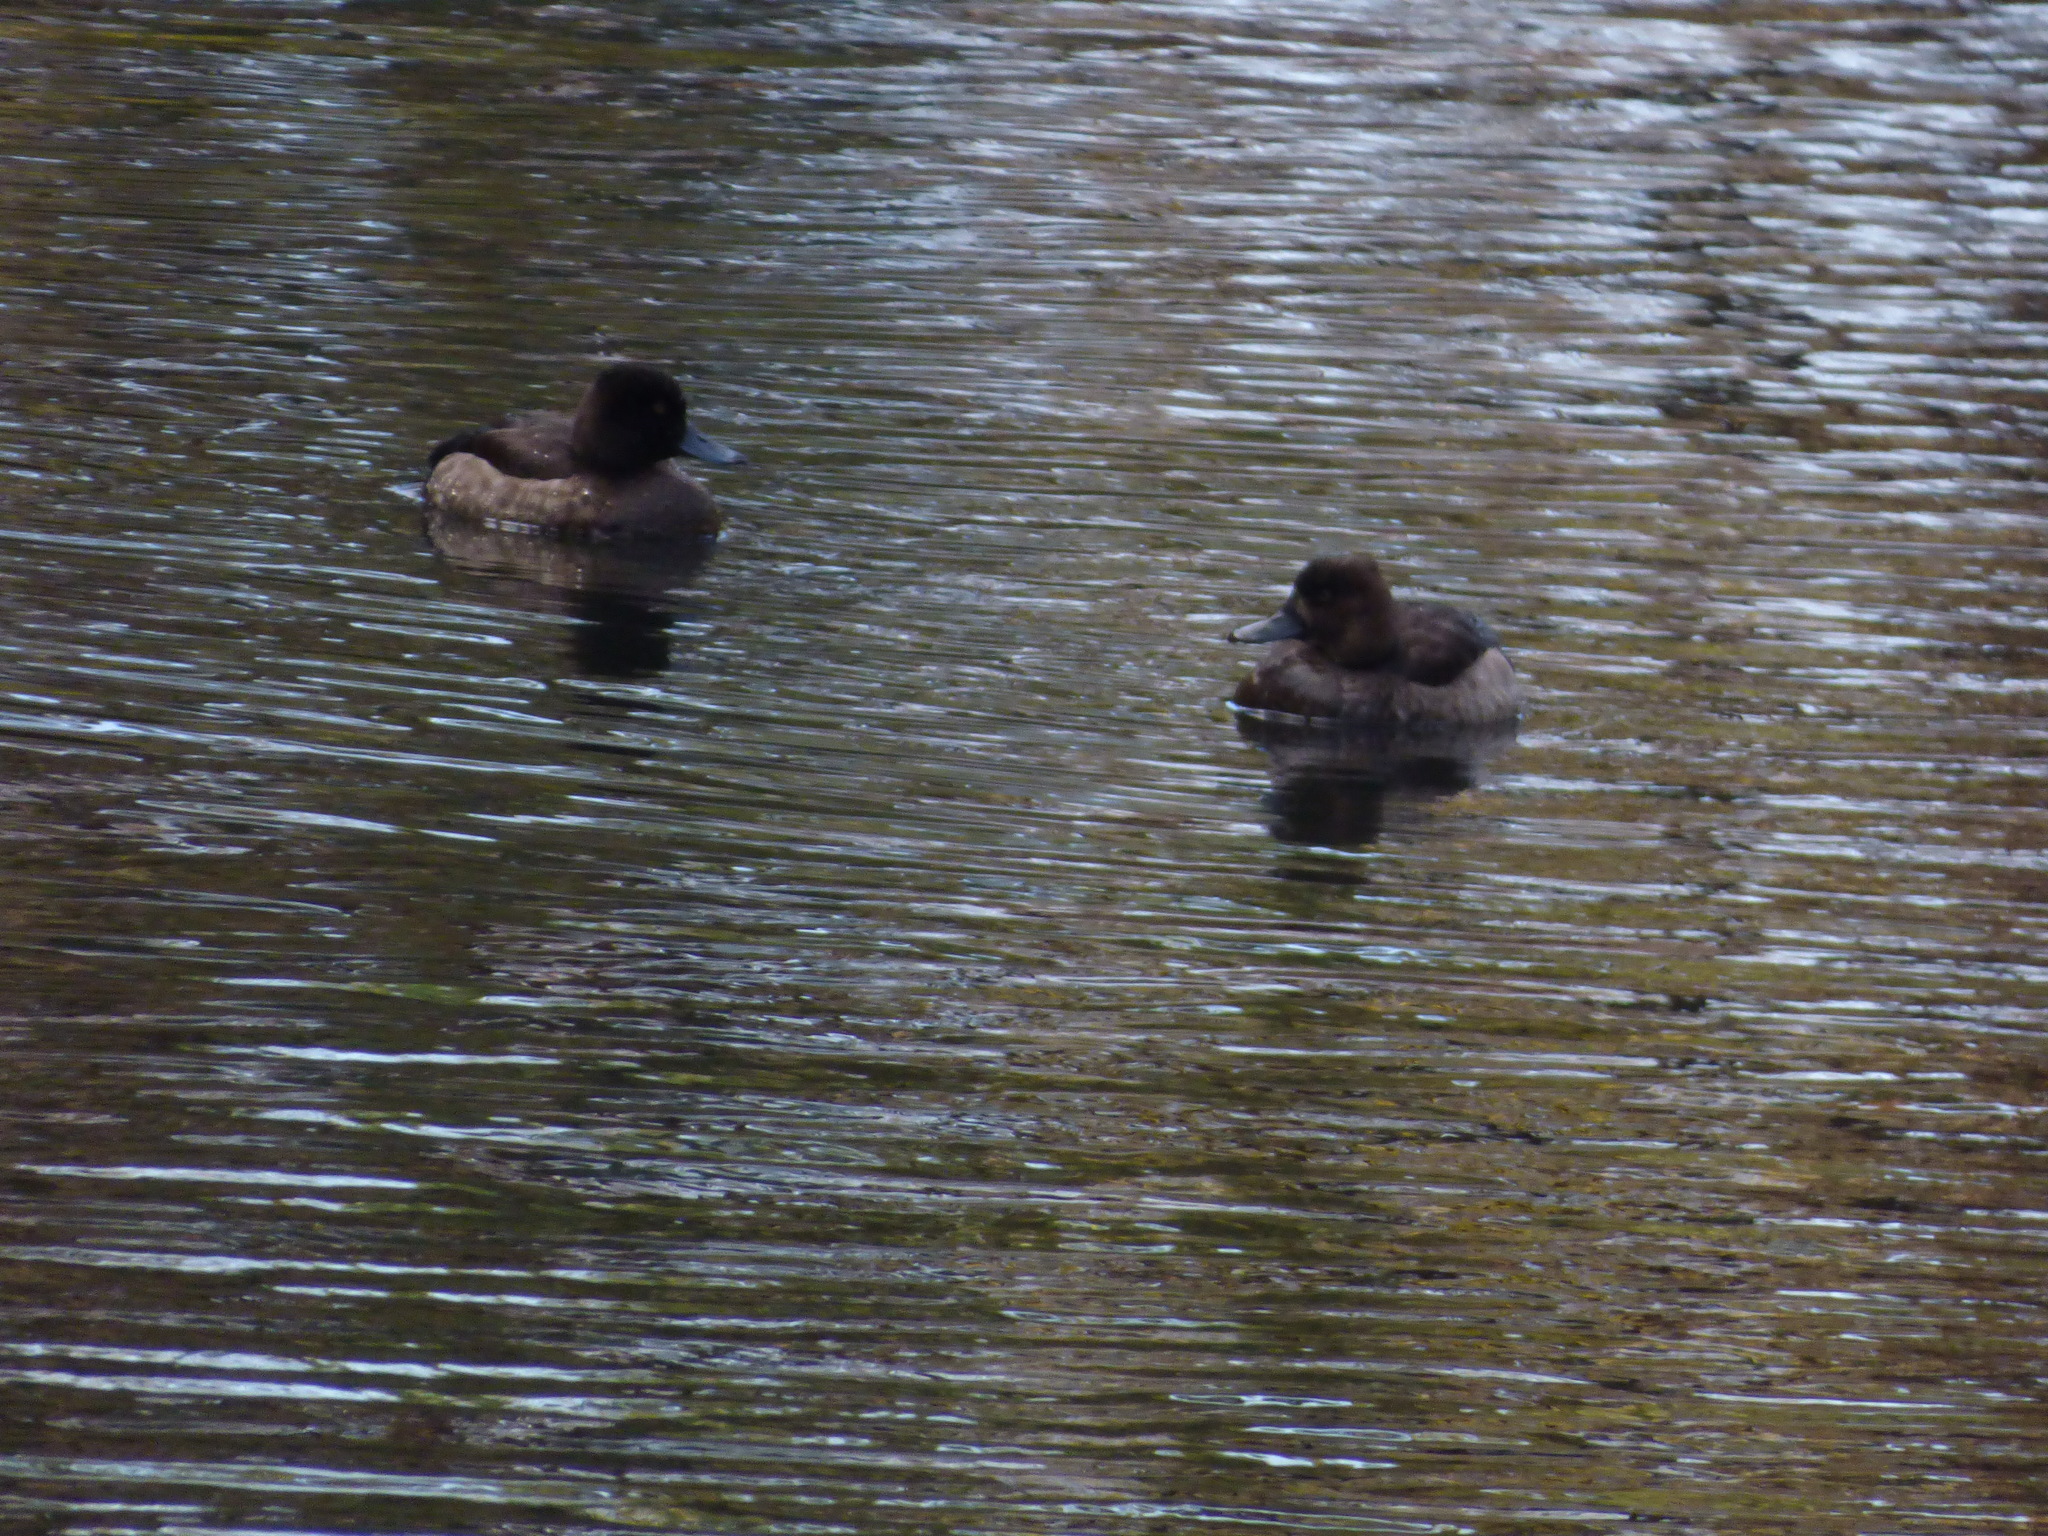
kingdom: Animalia
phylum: Chordata
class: Aves
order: Anseriformes
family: Anatidae
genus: Aythya
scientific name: Aythya fuligula
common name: Tufted duck
